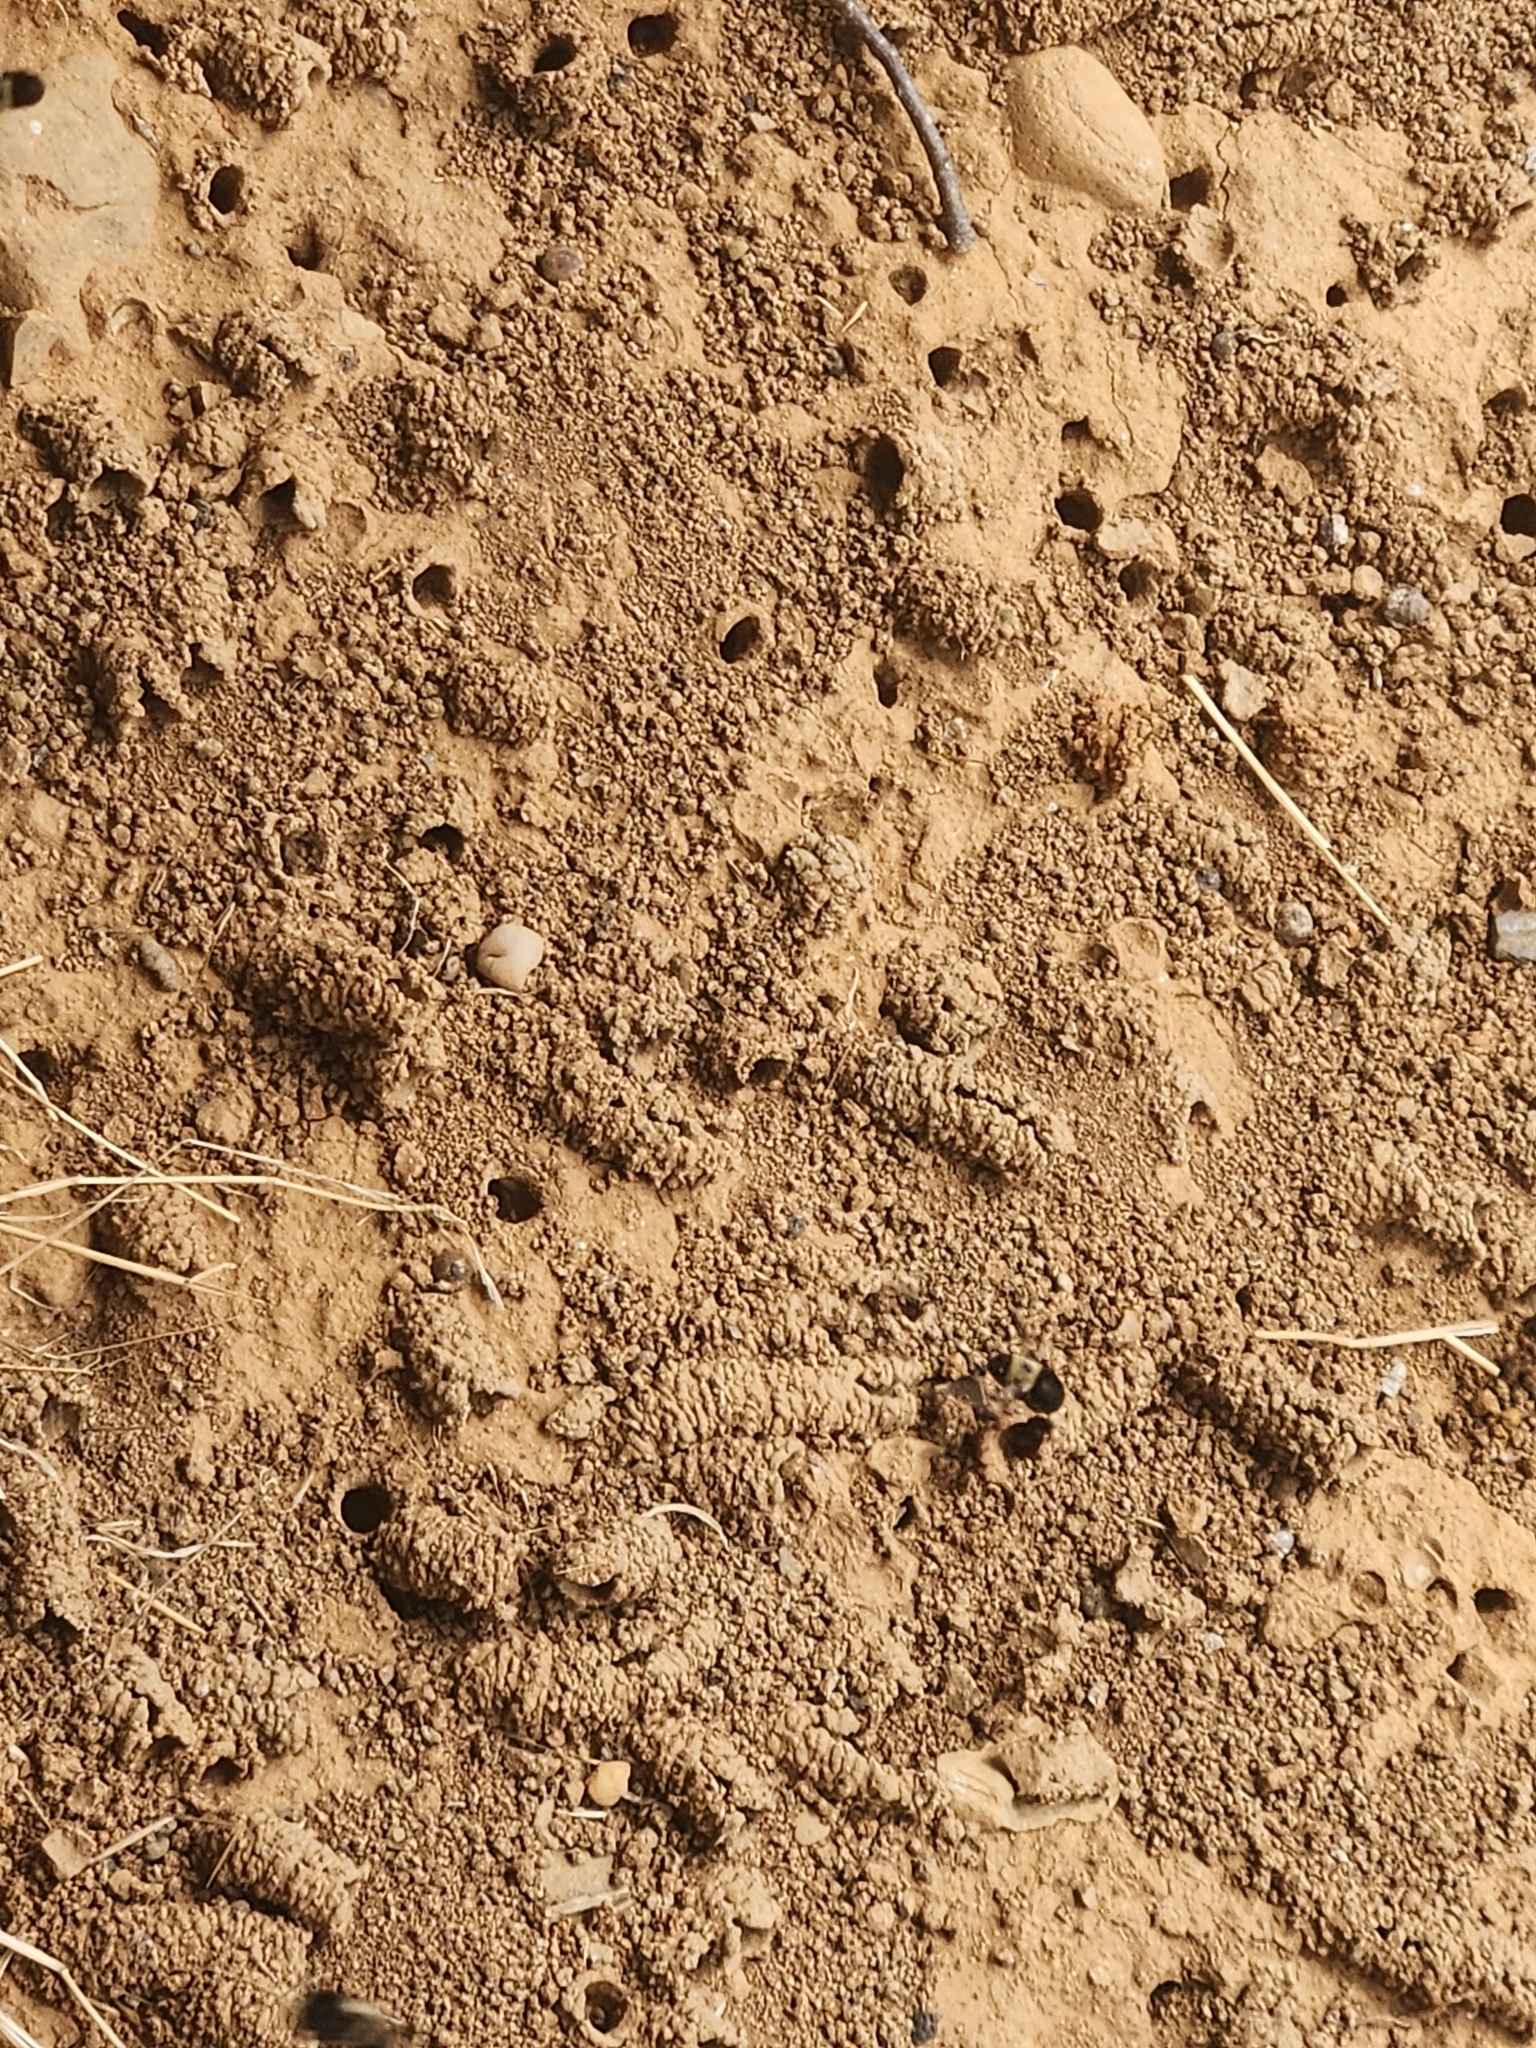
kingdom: Animalia
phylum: Arthropoda
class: Insecta
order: Hymenoptera
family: Apidae
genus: Anthophora
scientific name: Anthophora abrupta
